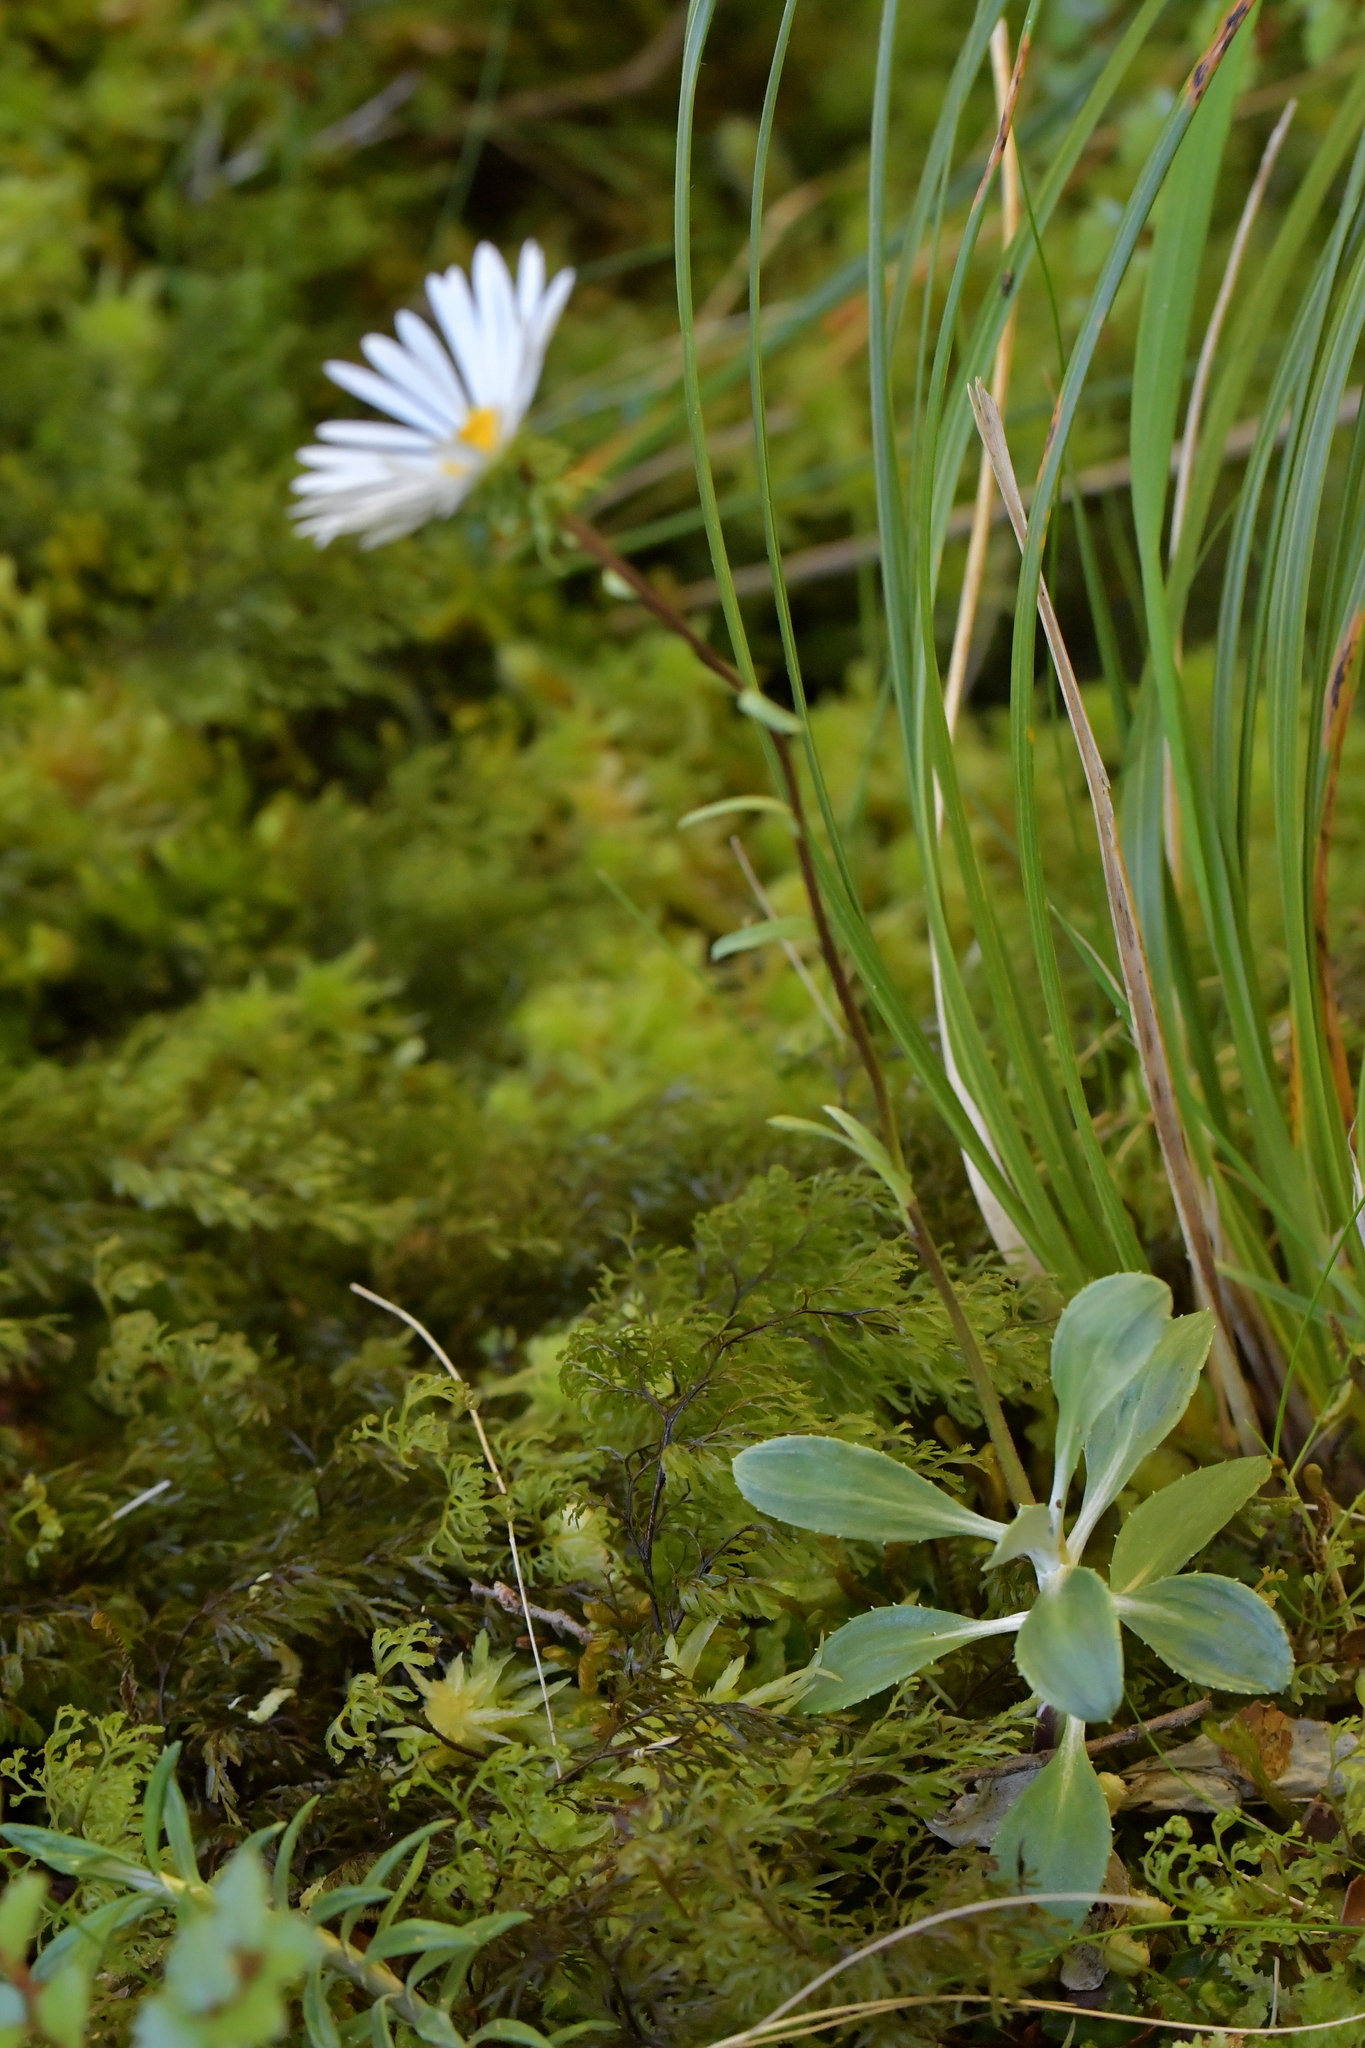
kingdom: Plantae
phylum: Tracheophyta
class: Magnoliopsida
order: Asterales
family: Asteraceae
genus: Celmisia
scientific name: Celmisia durietzii
